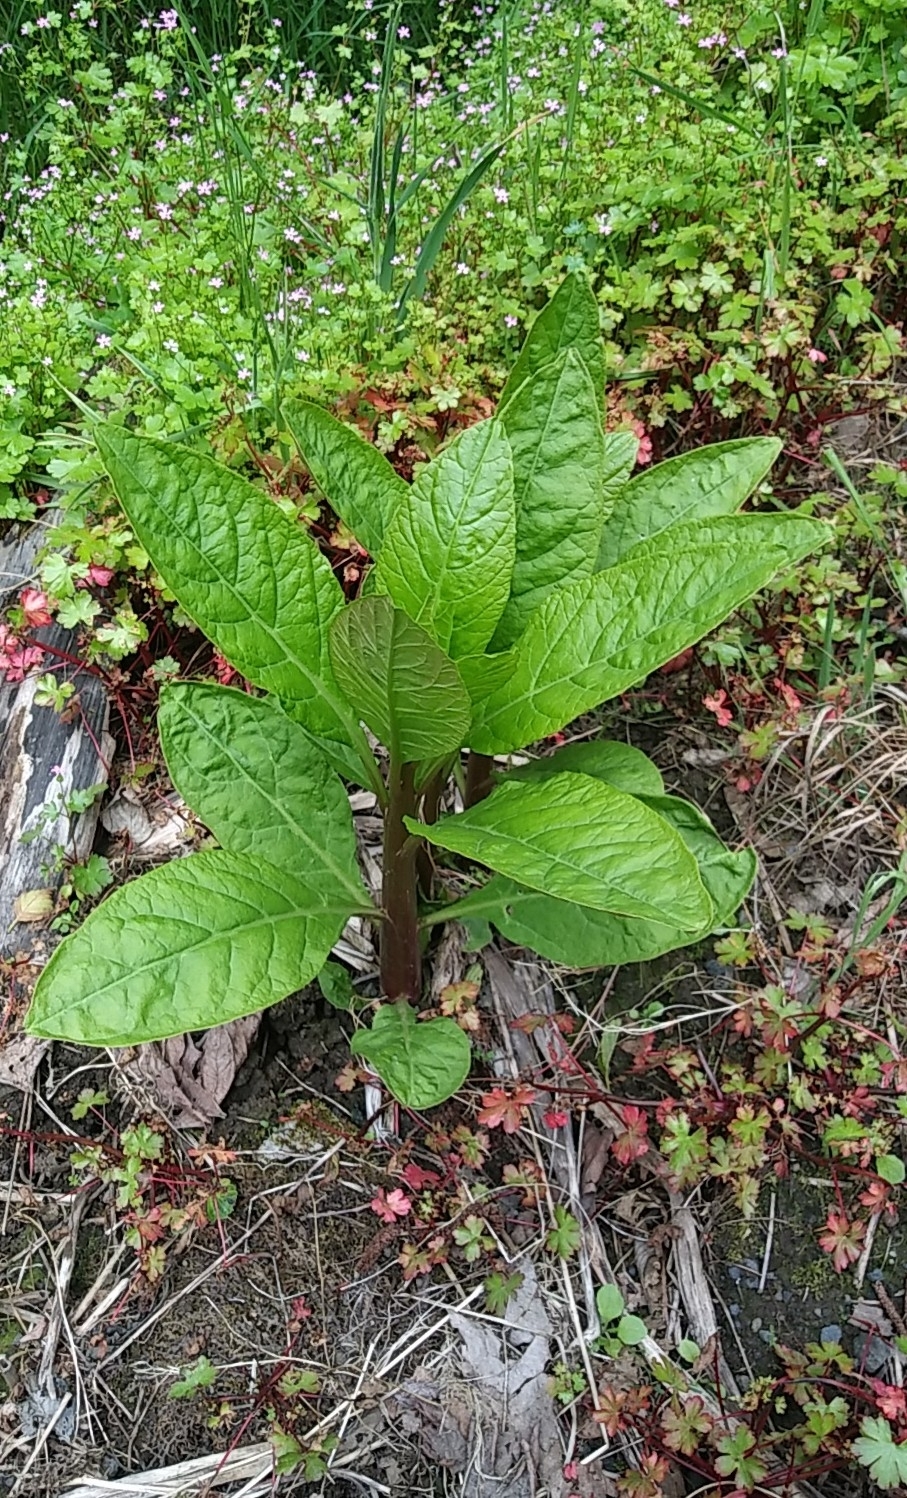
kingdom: Plantae
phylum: Tracheophyta
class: Magnoliopsida
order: Caryophyllales
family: Phytolaccaceae
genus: Phytolacca
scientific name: Phytolacca americana
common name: American pokeweed
